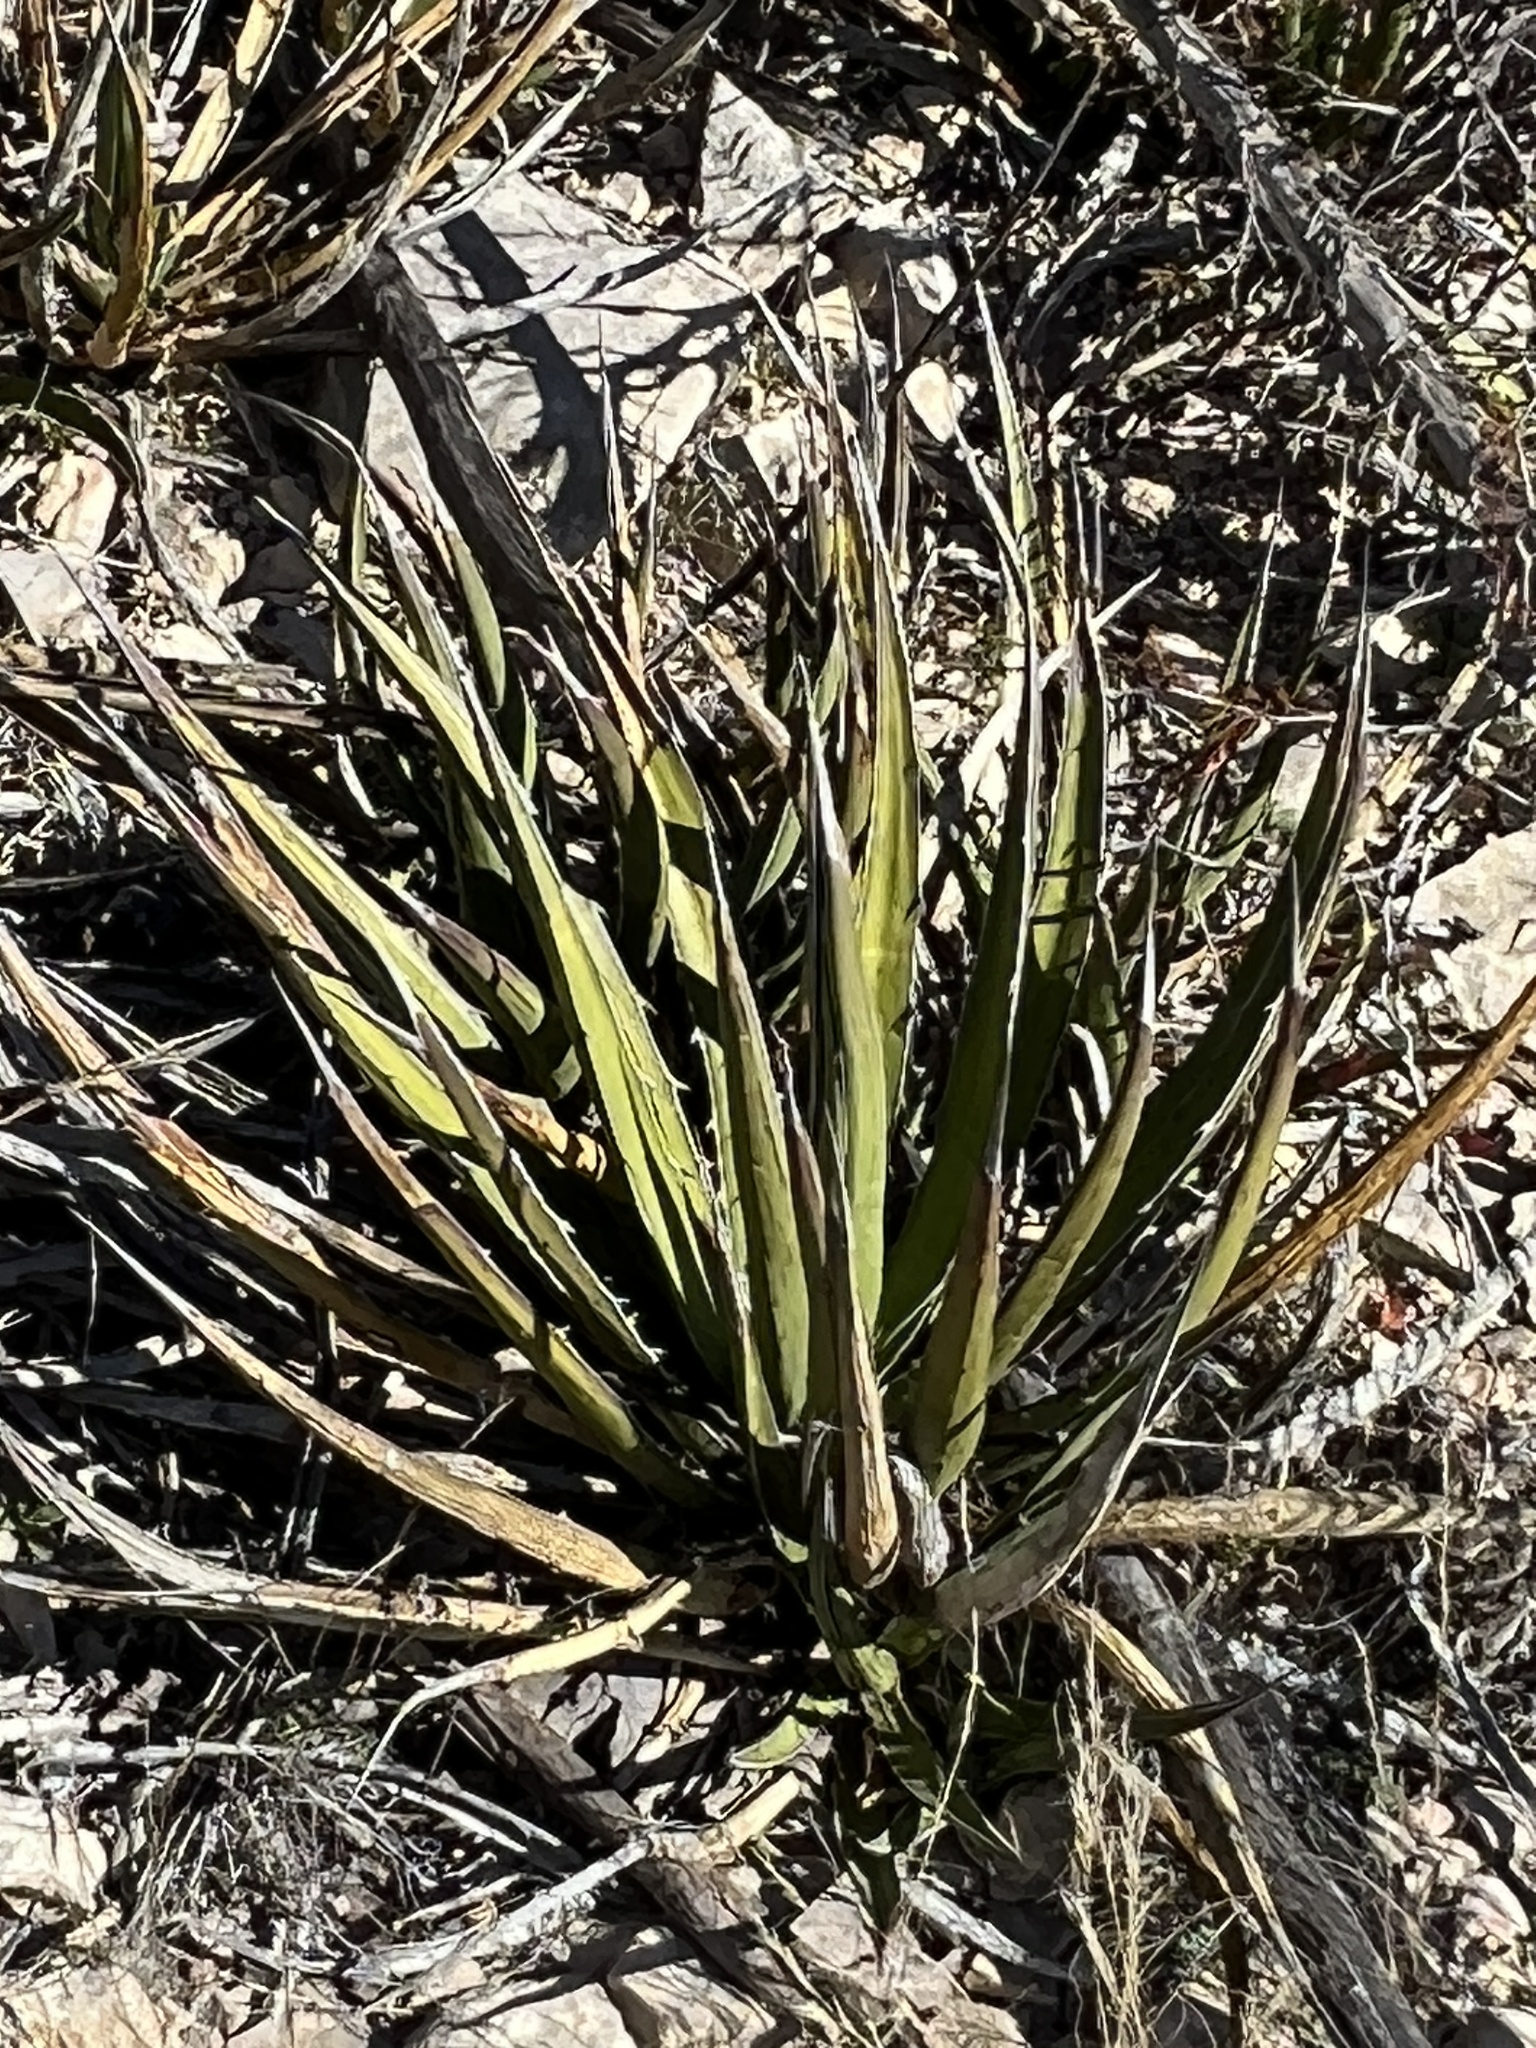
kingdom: Plantae
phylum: Tracheophyta
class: Liliopsida
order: Asparagales
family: Asparagaceae
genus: Agave
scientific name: Agave lechuguilla
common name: Lecheguilla agave
